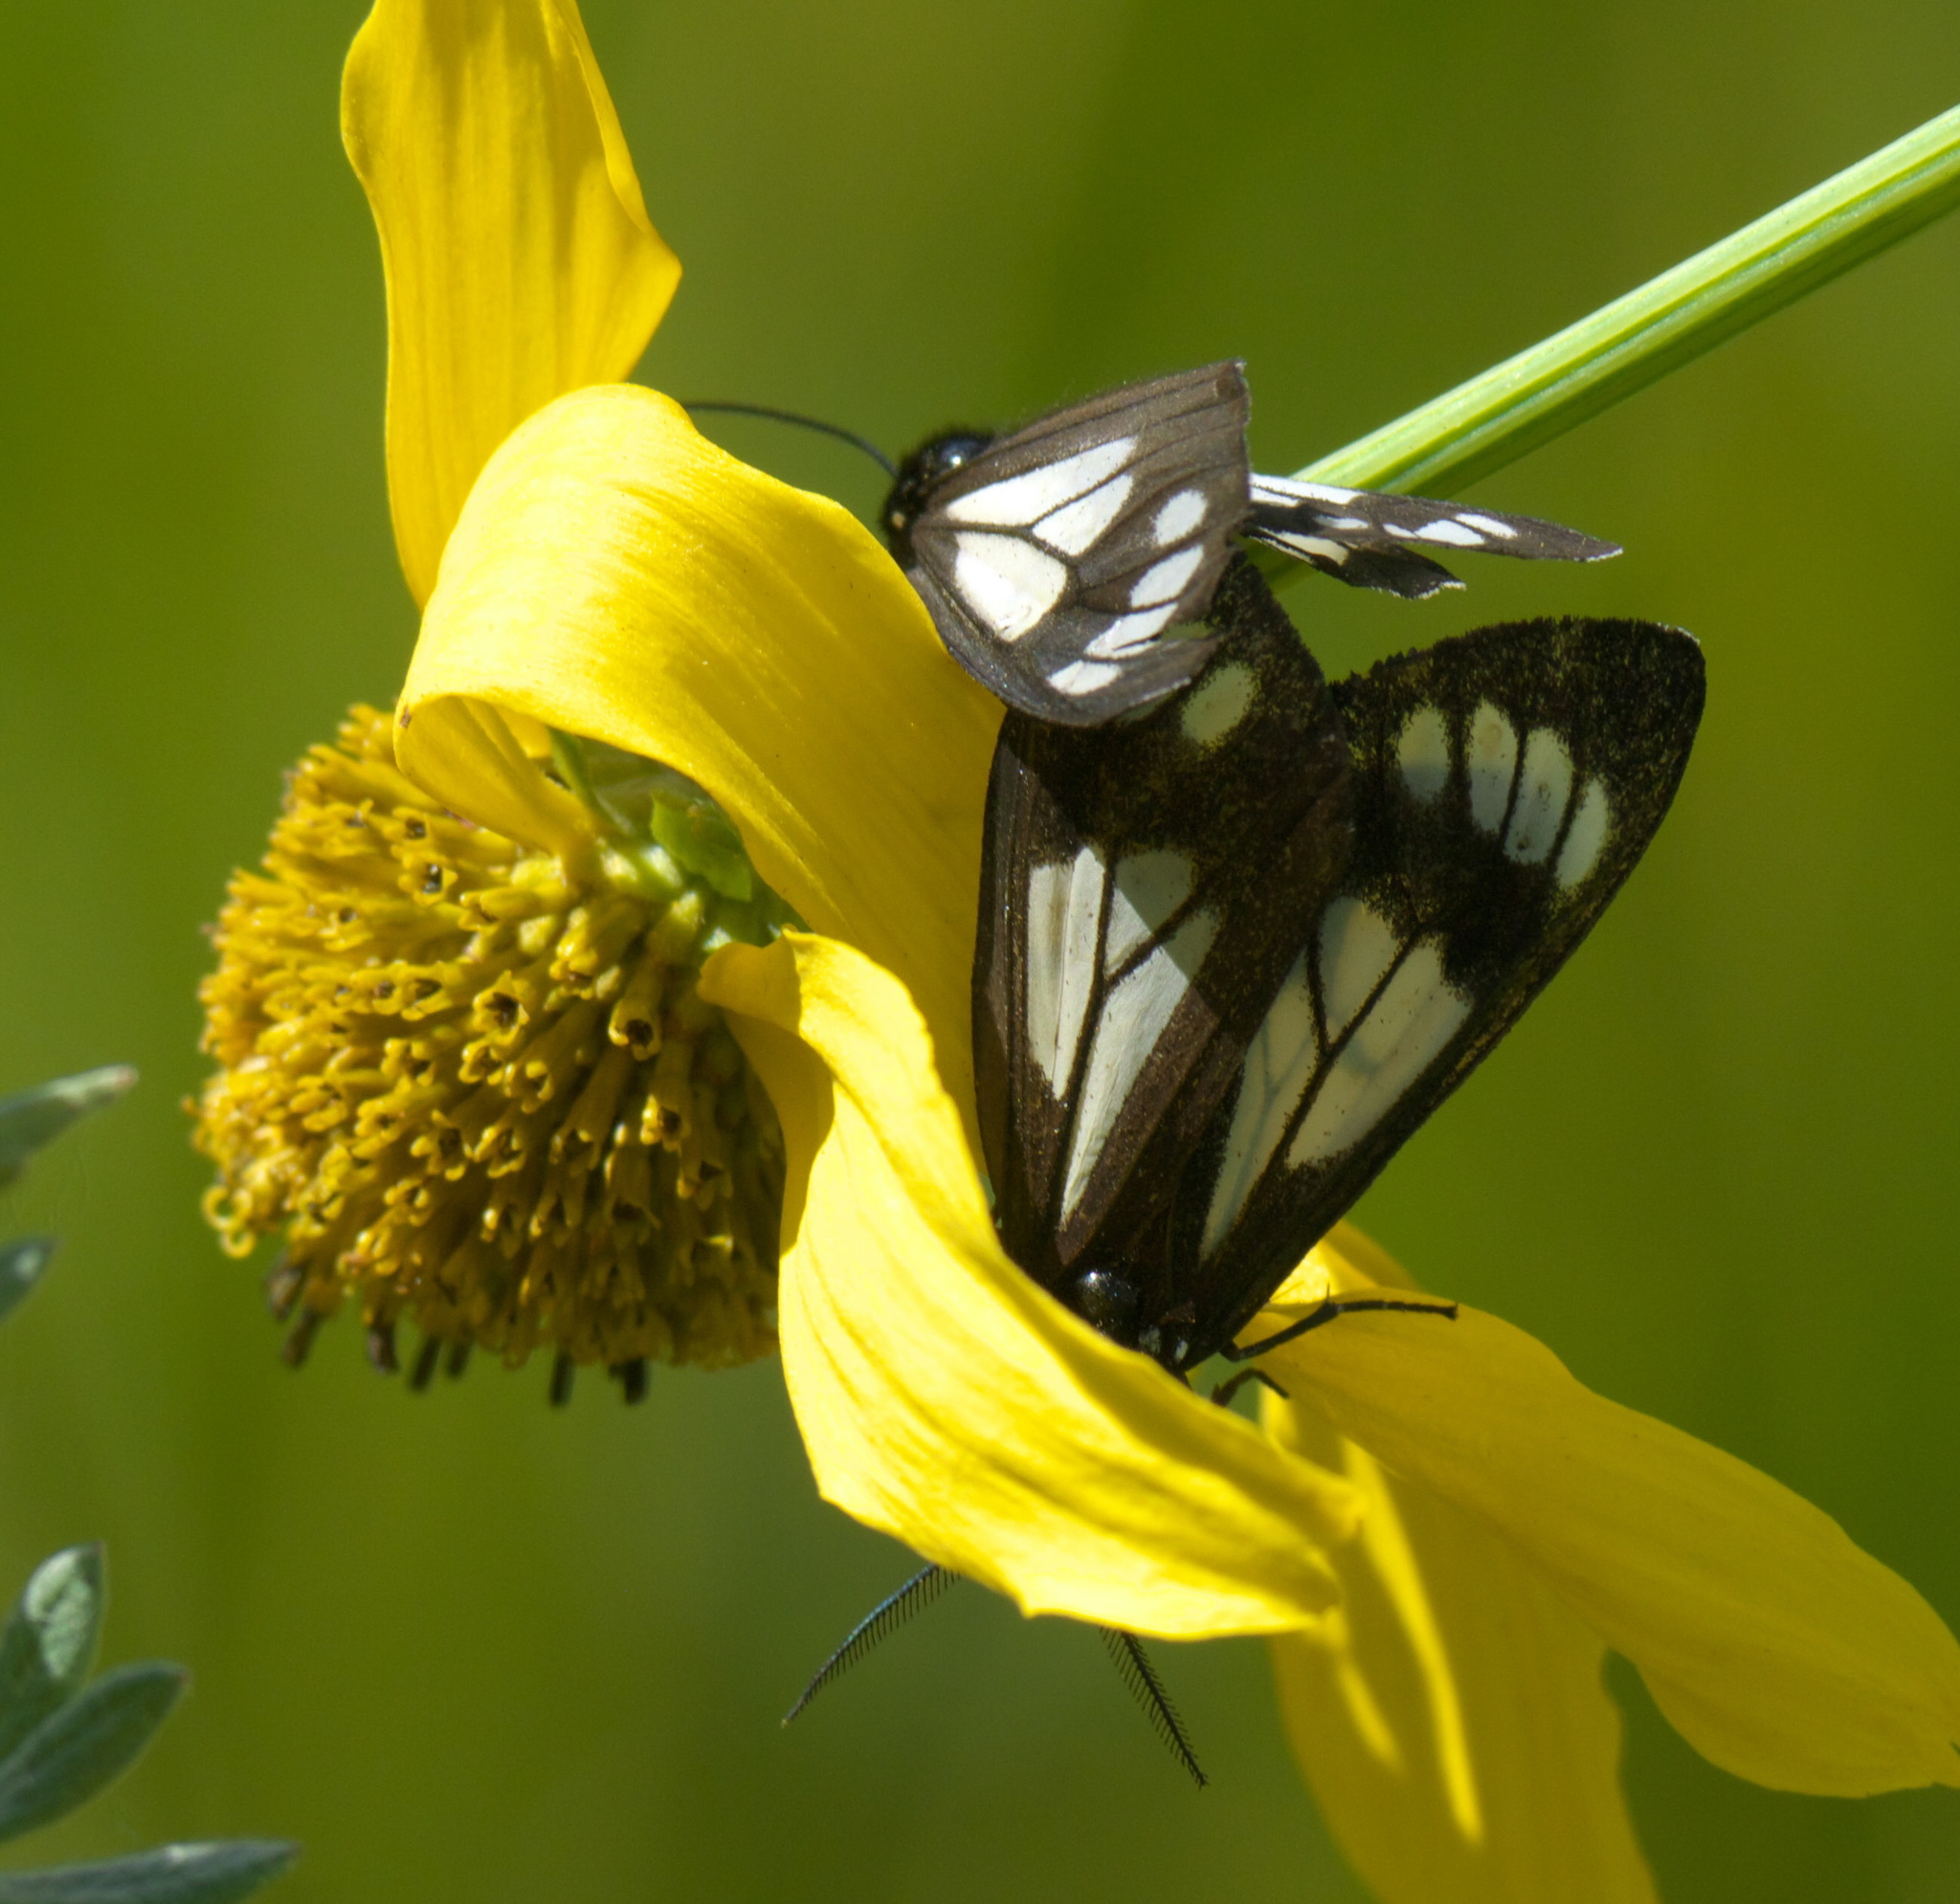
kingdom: Animalia
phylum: Arthropoda
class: Insecta
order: Lepidoptera
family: Erebidae
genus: Gnophaela
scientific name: Gnophaela vermiculata
